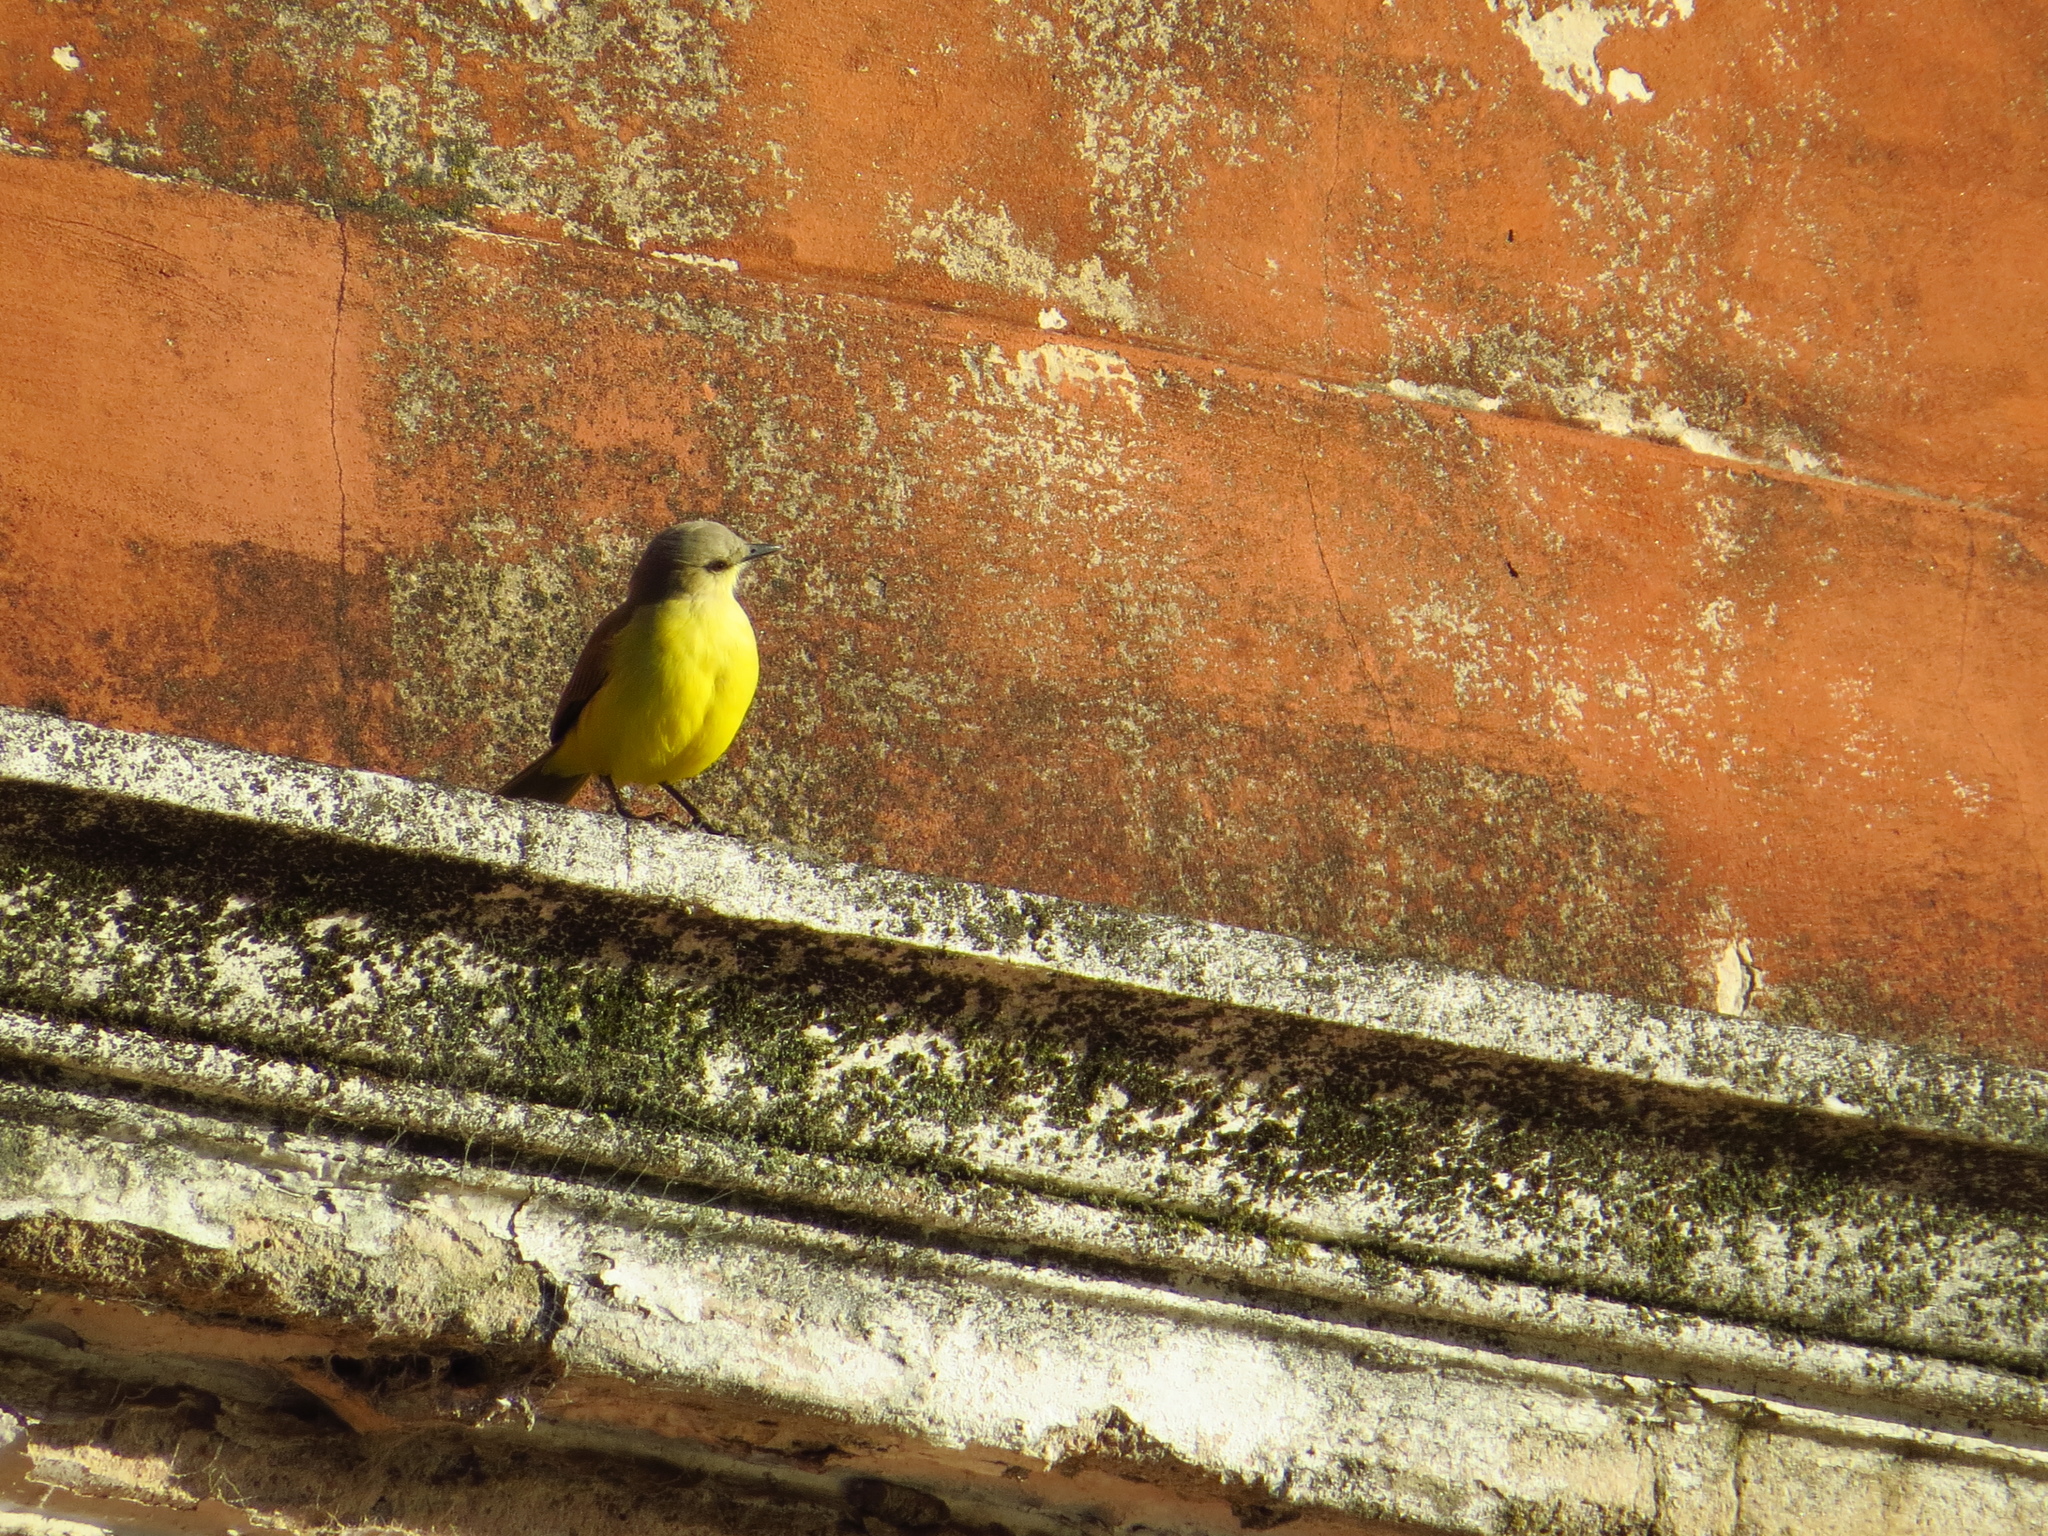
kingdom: Animalia
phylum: Chordata
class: Aves
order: Passeriformes
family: Tyrannidae
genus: Machetornis
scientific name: Machetornis rixosa
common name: Cattle tyrant
